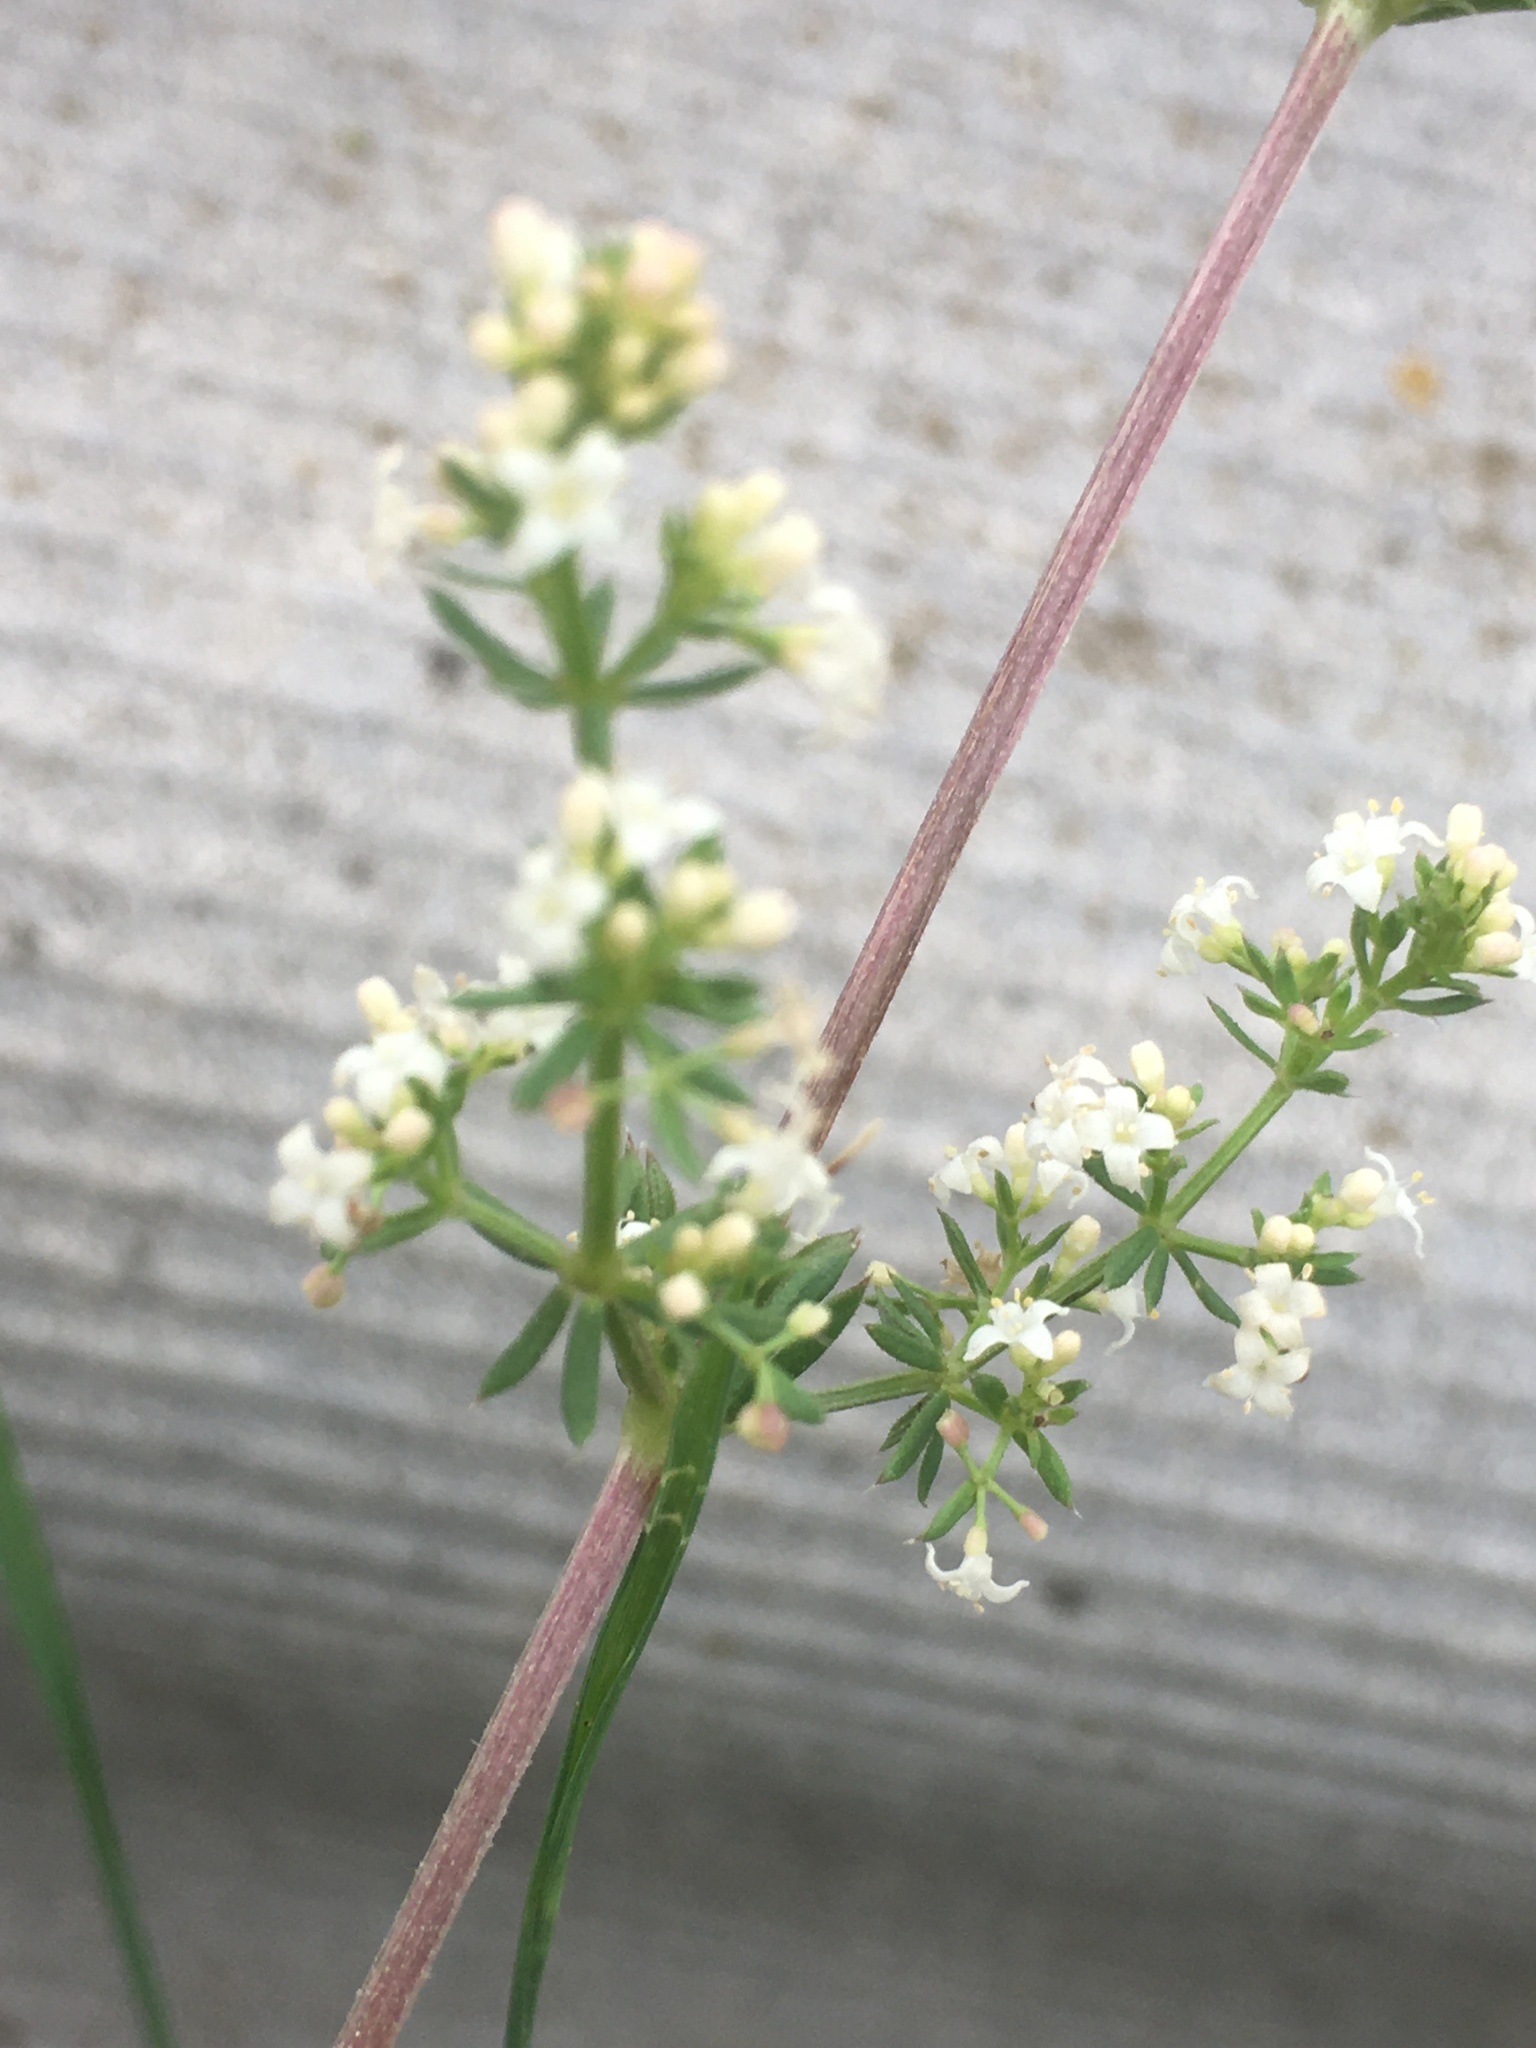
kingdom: Plantae
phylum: Tracheophyta
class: Magnoliopsida
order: Gentianales
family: Rubiaceae
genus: Galium
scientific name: Galium humifusum
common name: Spreading bedstraw
